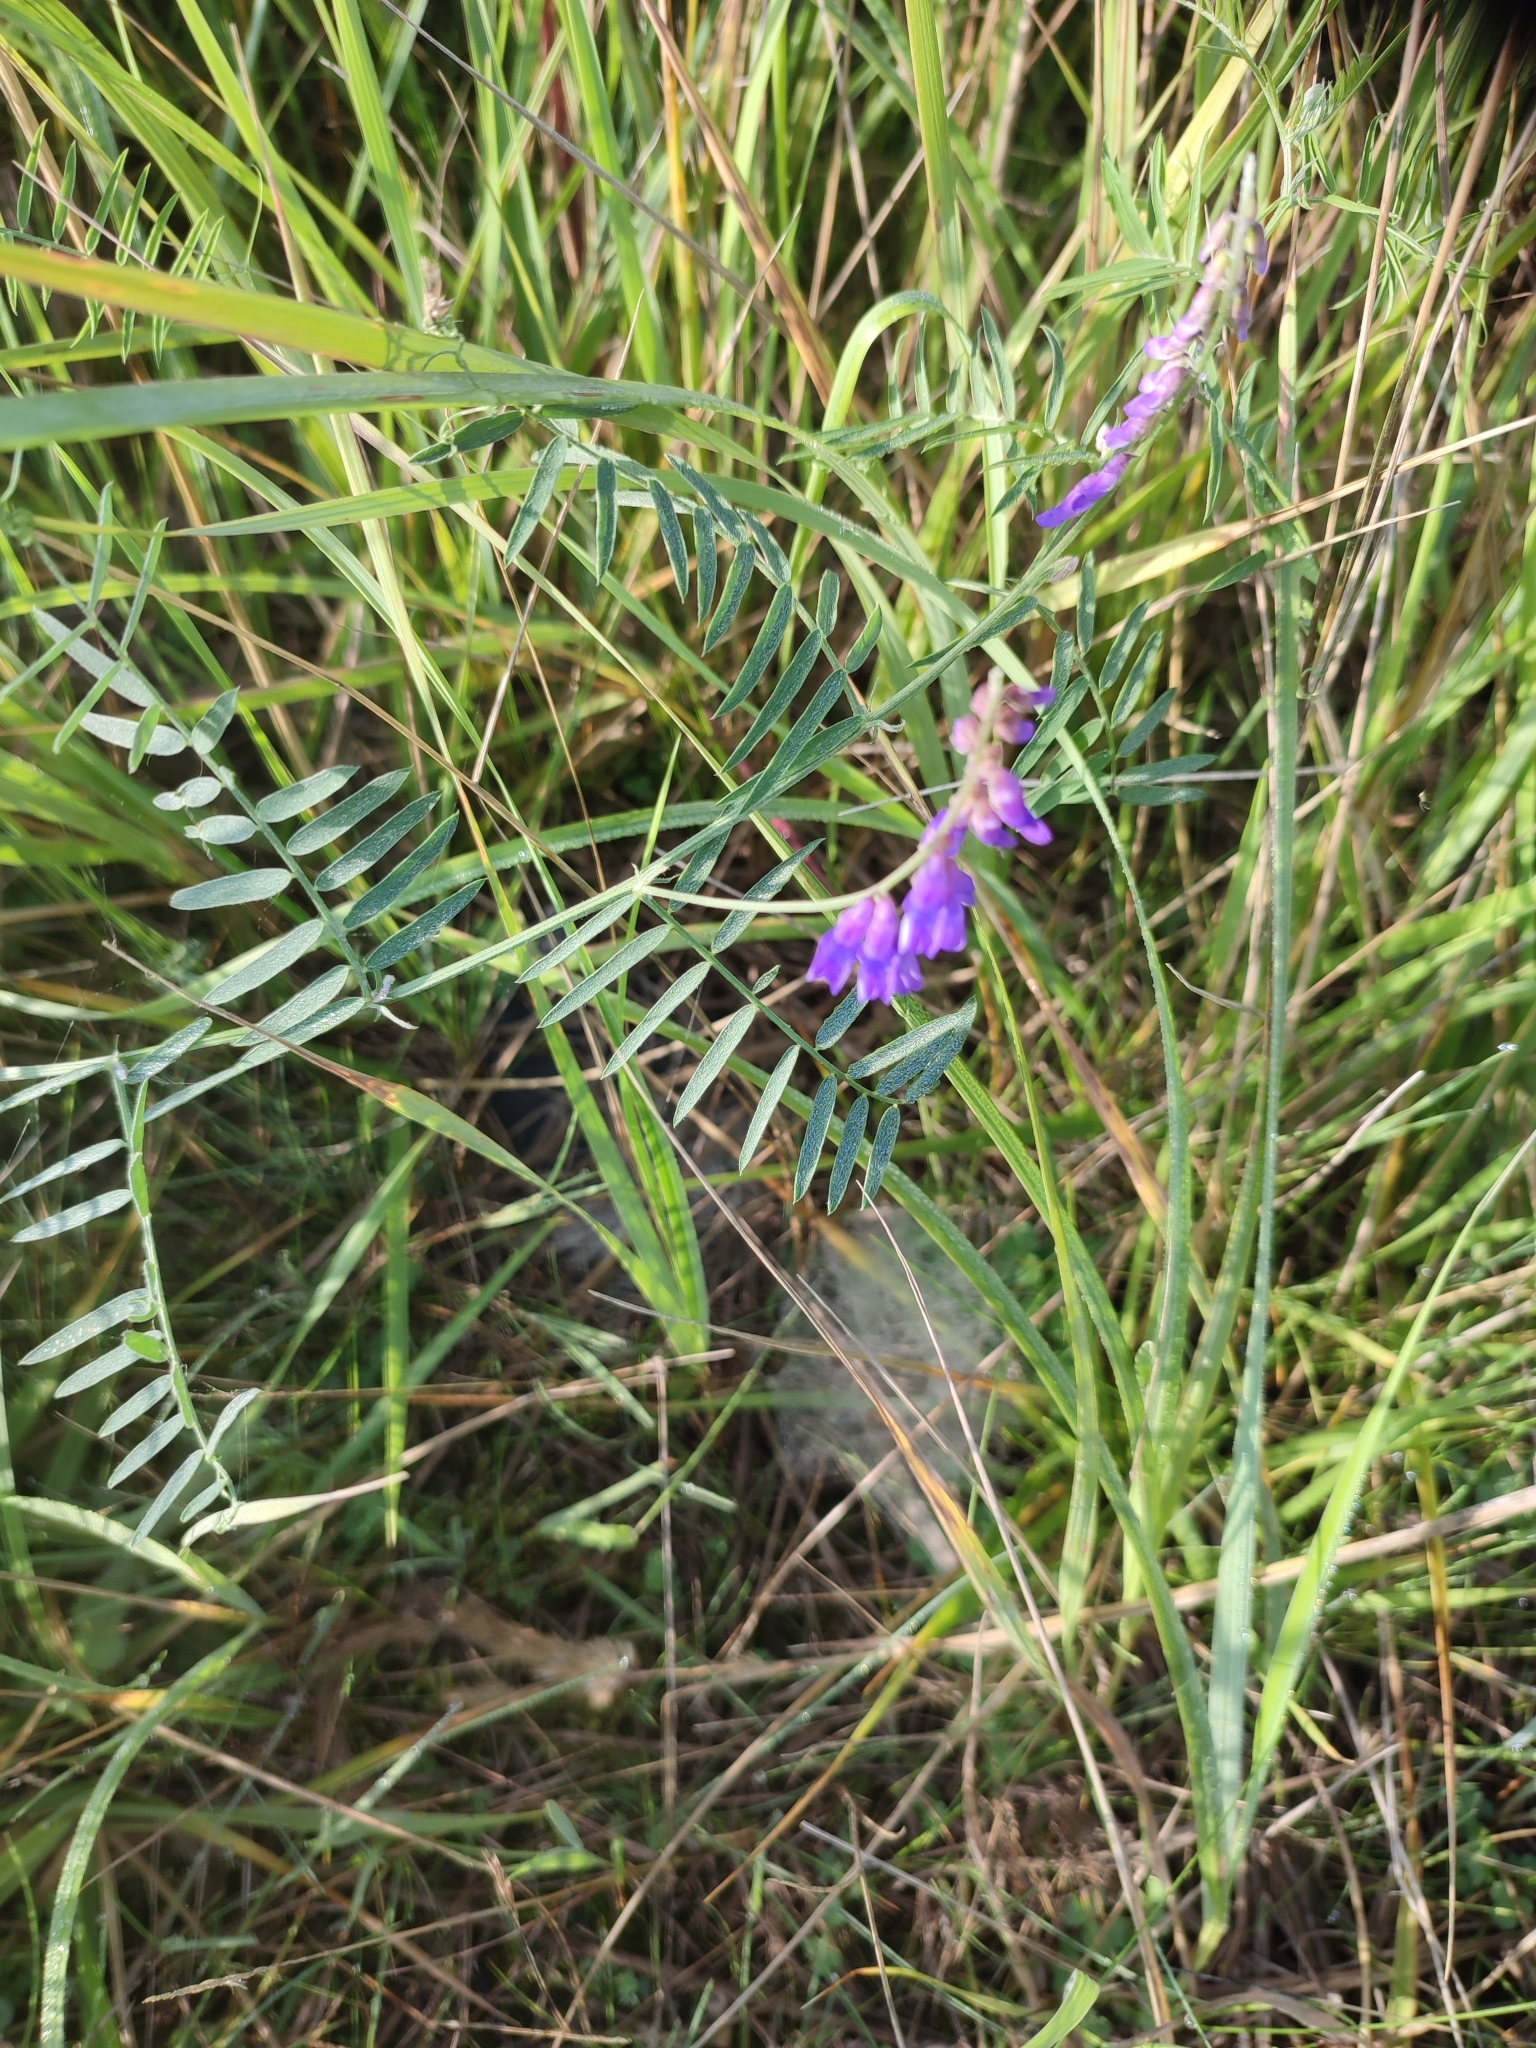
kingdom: Plantae
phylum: Tracheophyta
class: Magnoliopsida
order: Fabales
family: Fabaceae
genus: Vicia
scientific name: Vicia cracca
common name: Bird vetch
